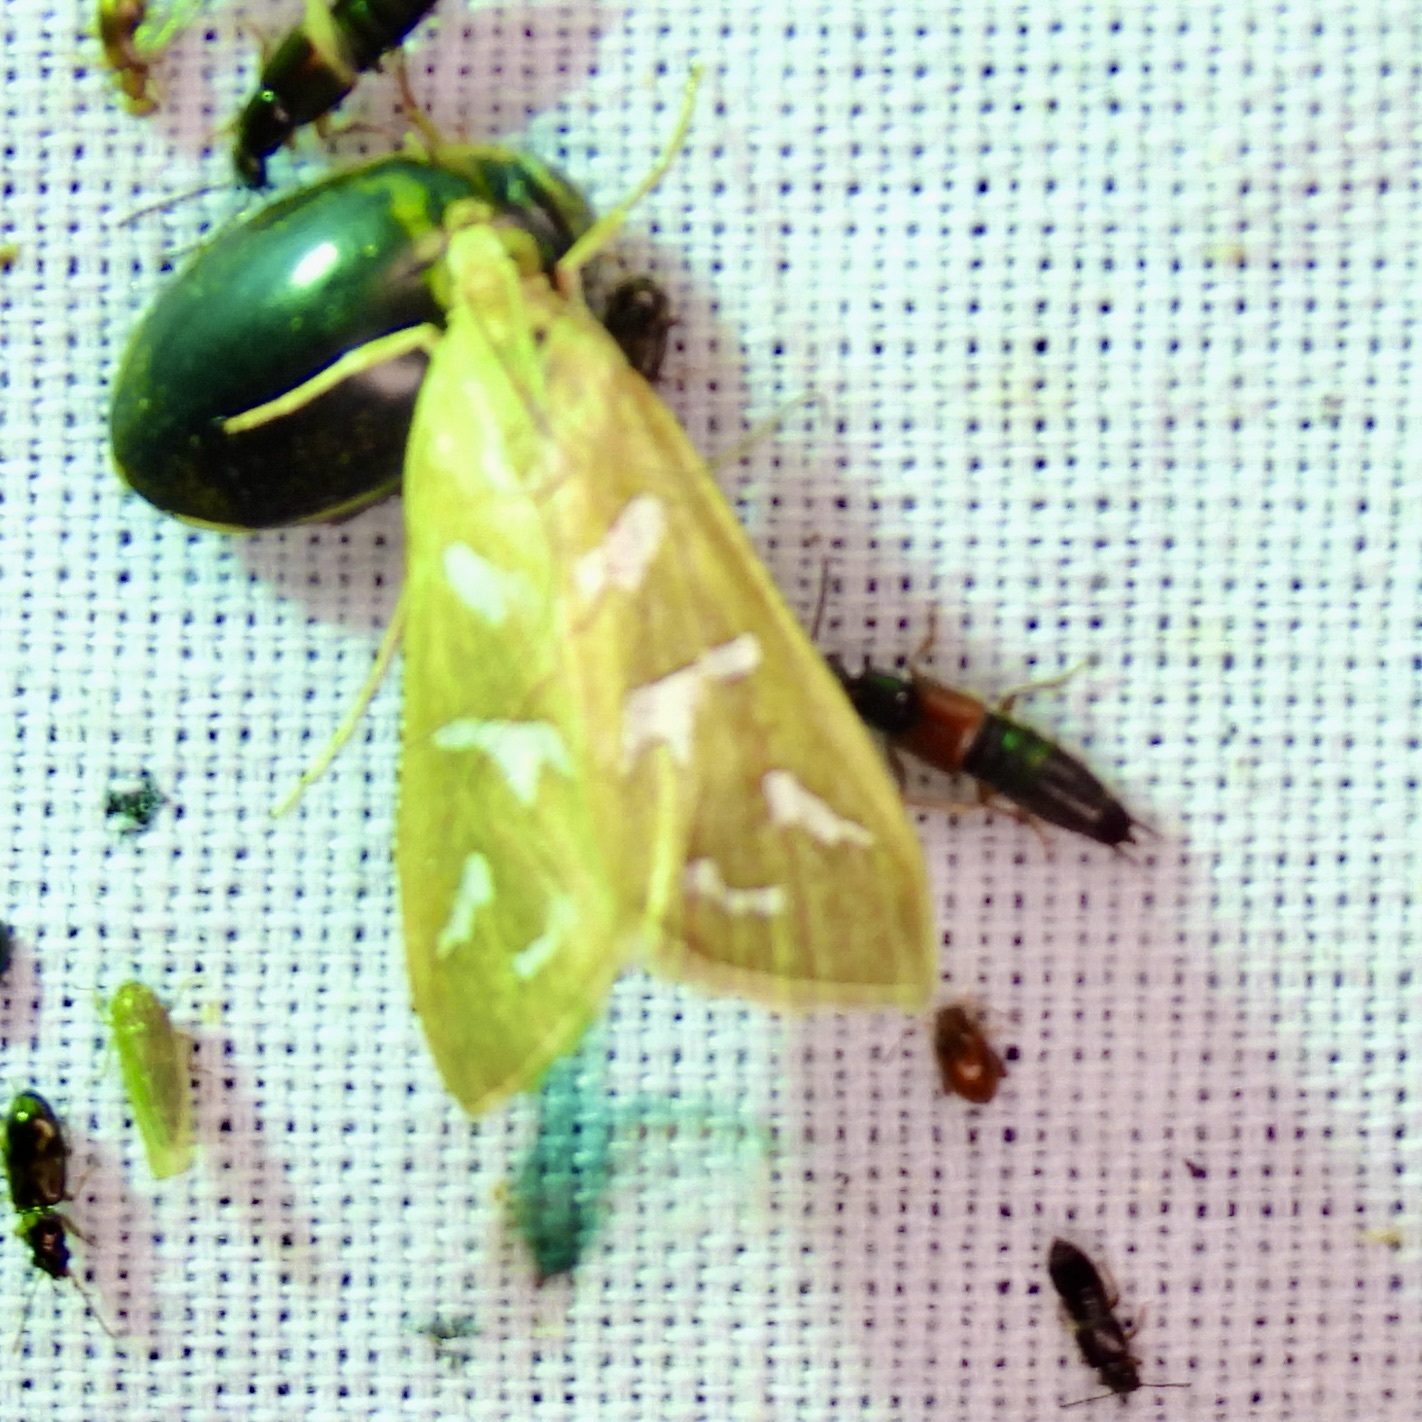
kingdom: Animalia
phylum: Arthropoda
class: Insecta
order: Lepidoptera
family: Crambidae
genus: Diastictis
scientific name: Diastictis fracturalis
